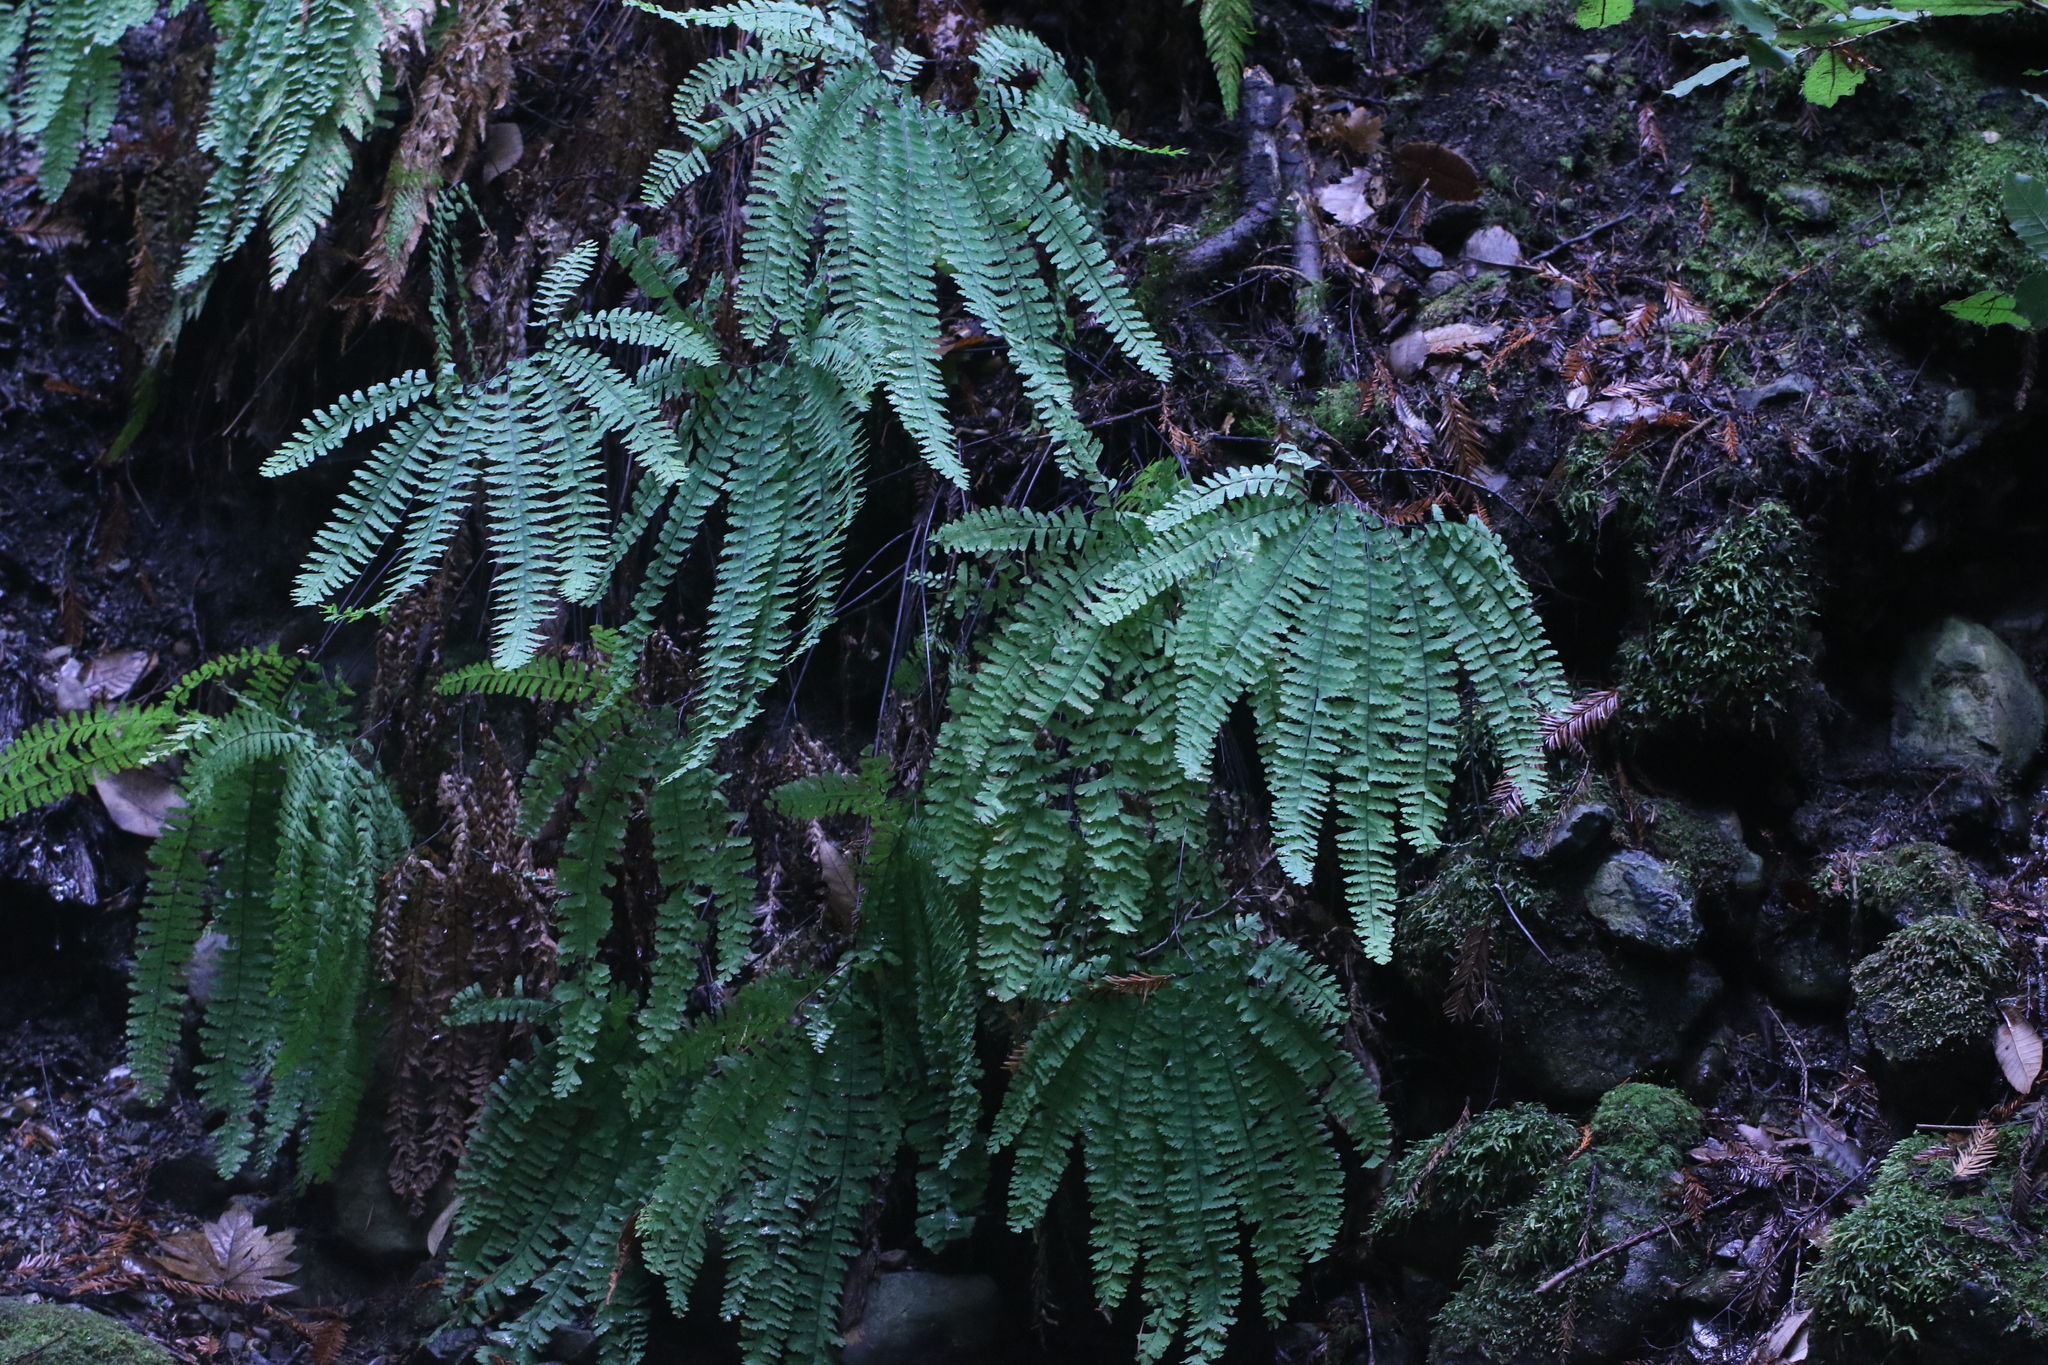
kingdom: Plantae
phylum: Tracheophyta
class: Polypodiopsida
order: Polypodiales
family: Pteridaceae
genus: Adiantum
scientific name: Adiantum aleuticum
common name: Aleutian maidenhair fern
